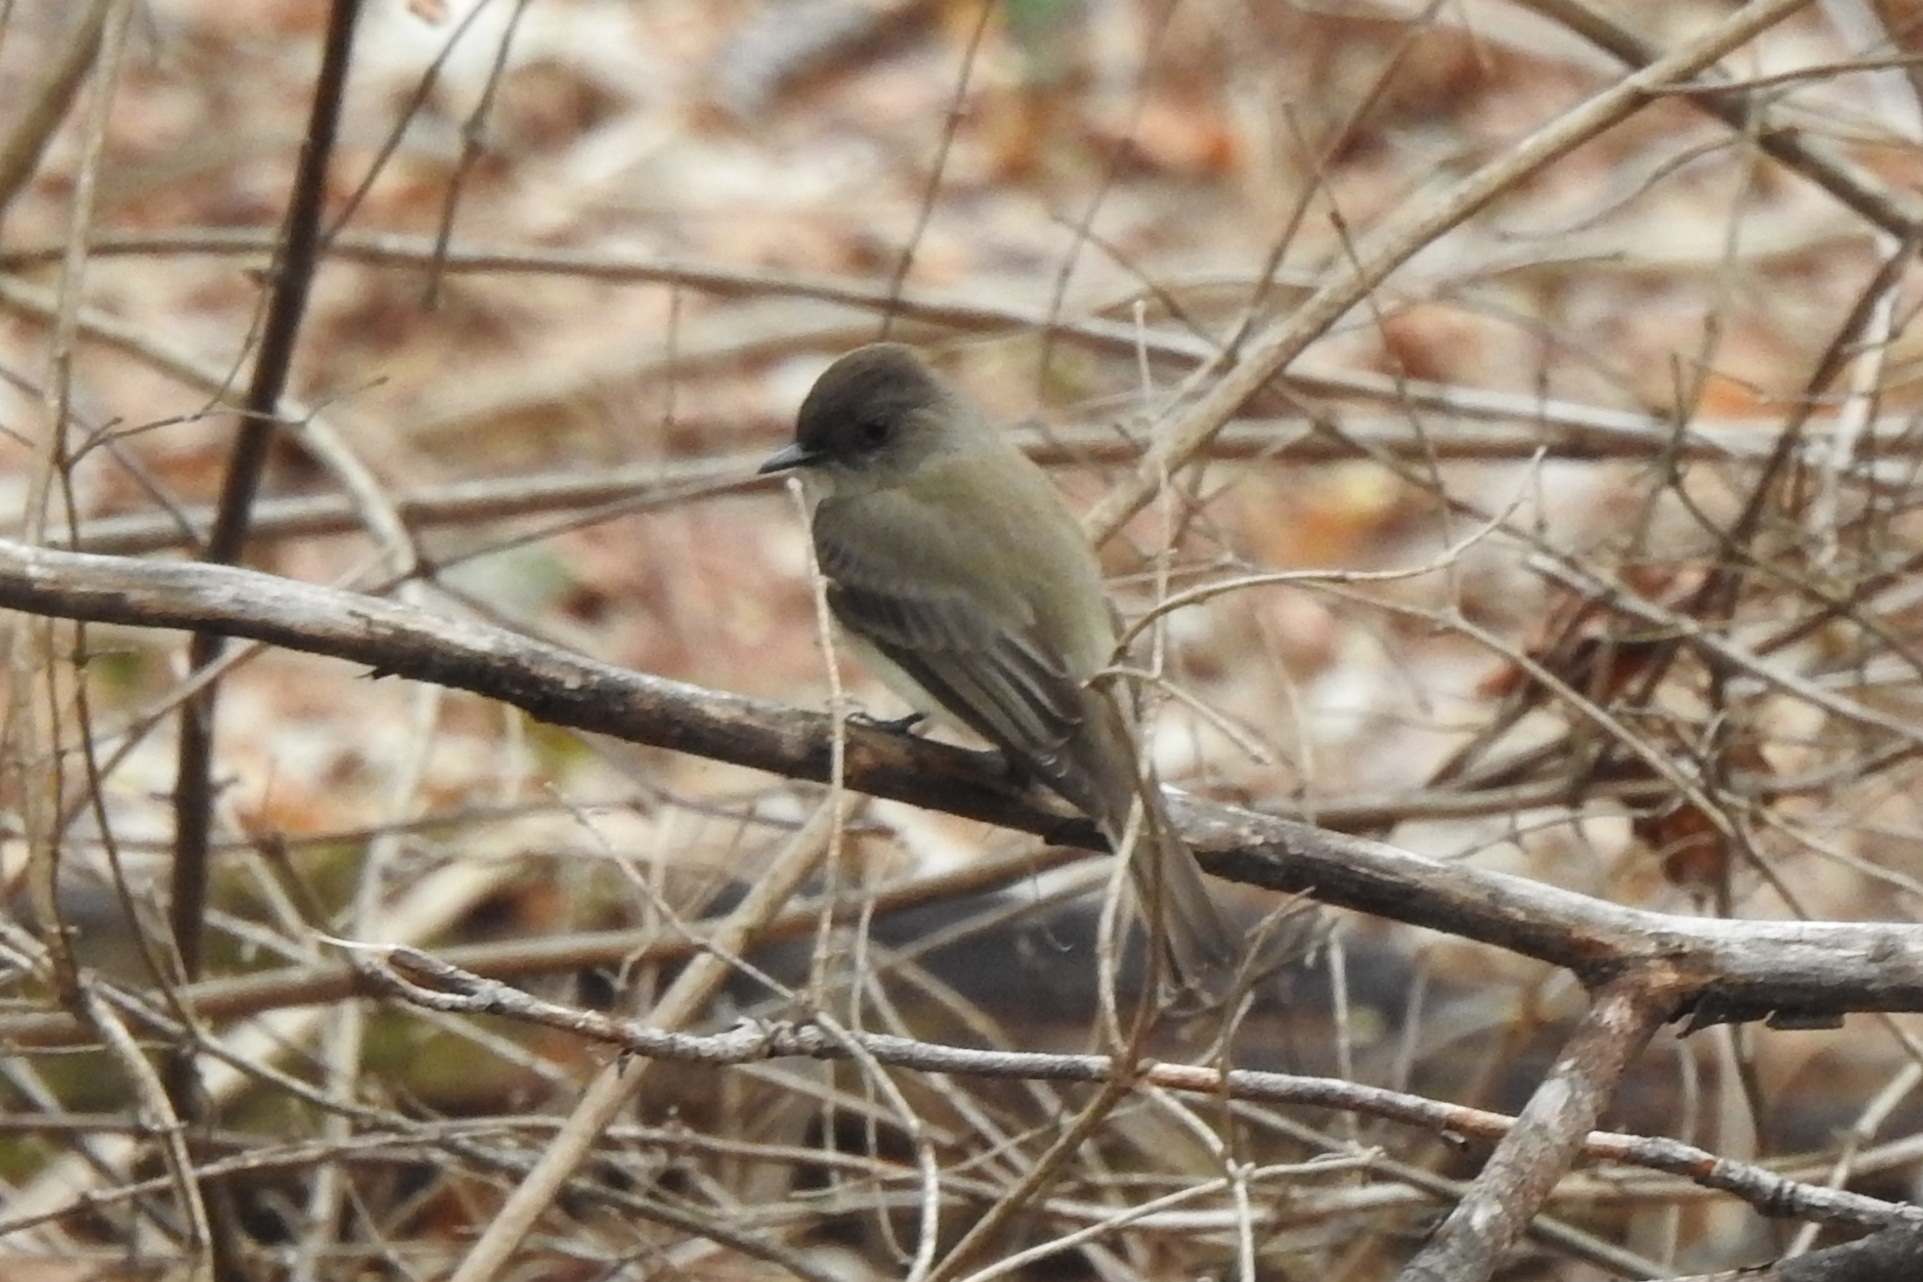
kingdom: Animalia
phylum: Chordata
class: Aves
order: Passeriformes
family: Tyrannidae
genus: Sayornis
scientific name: Sayornis phoebe
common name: Eastern phoebe
